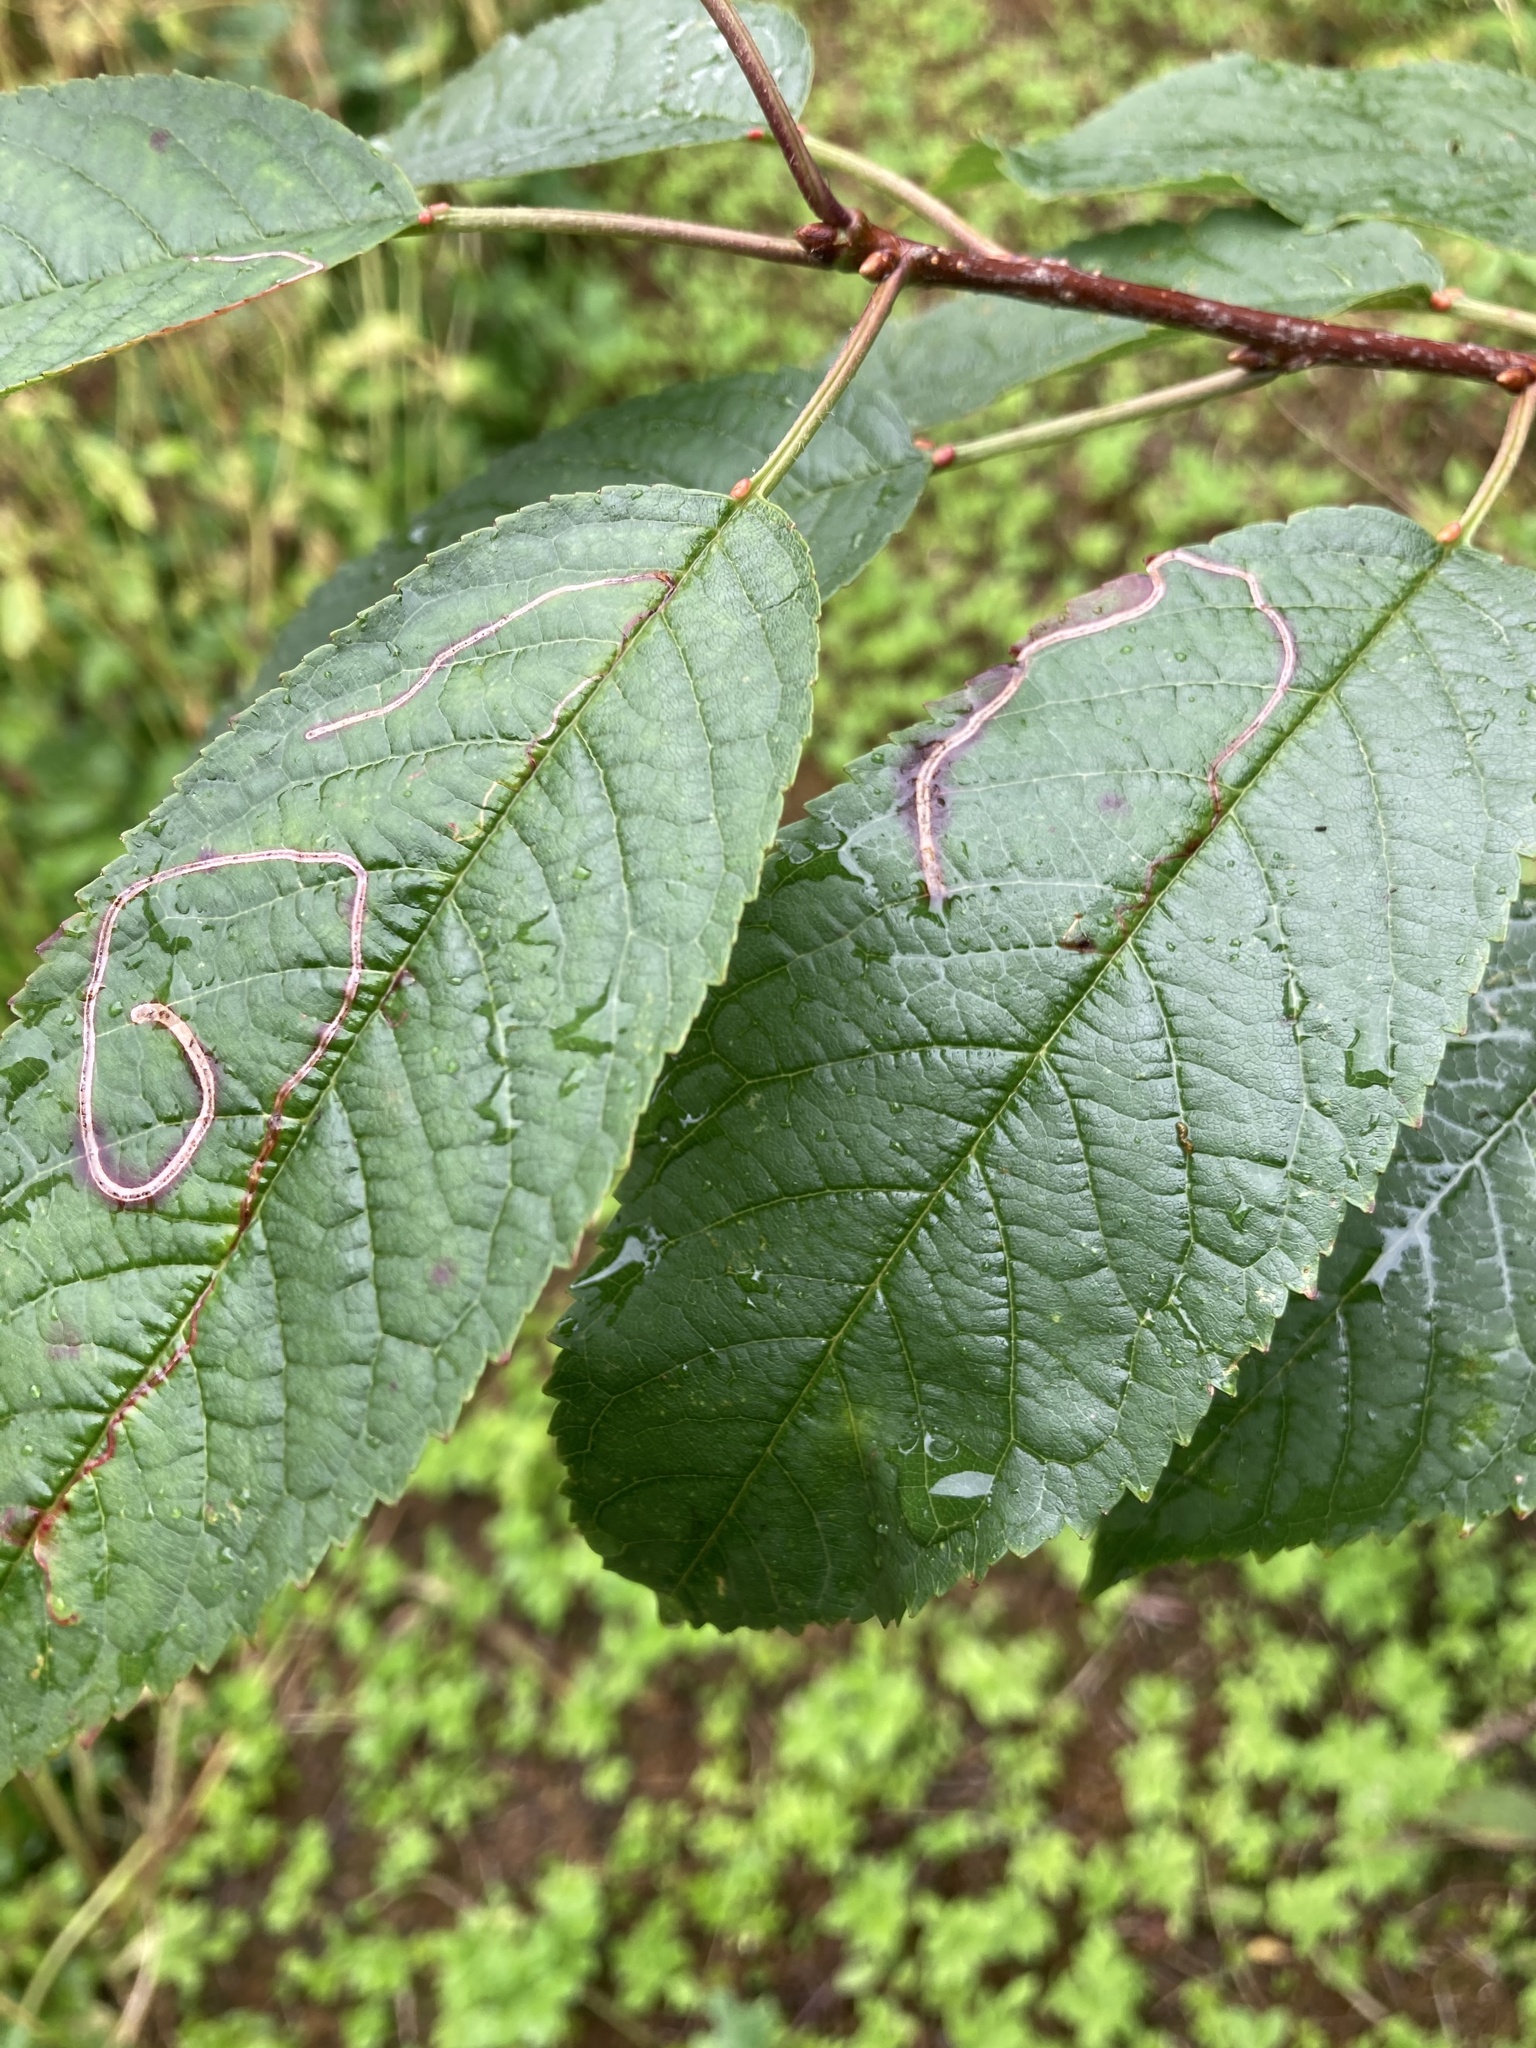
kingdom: Animalia
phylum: Arthropoda
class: Insecta
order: Lepidoptera
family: Lyonetiidae
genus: Lyonetia
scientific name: Lyonetia clerkella
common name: Apple leaf miner
